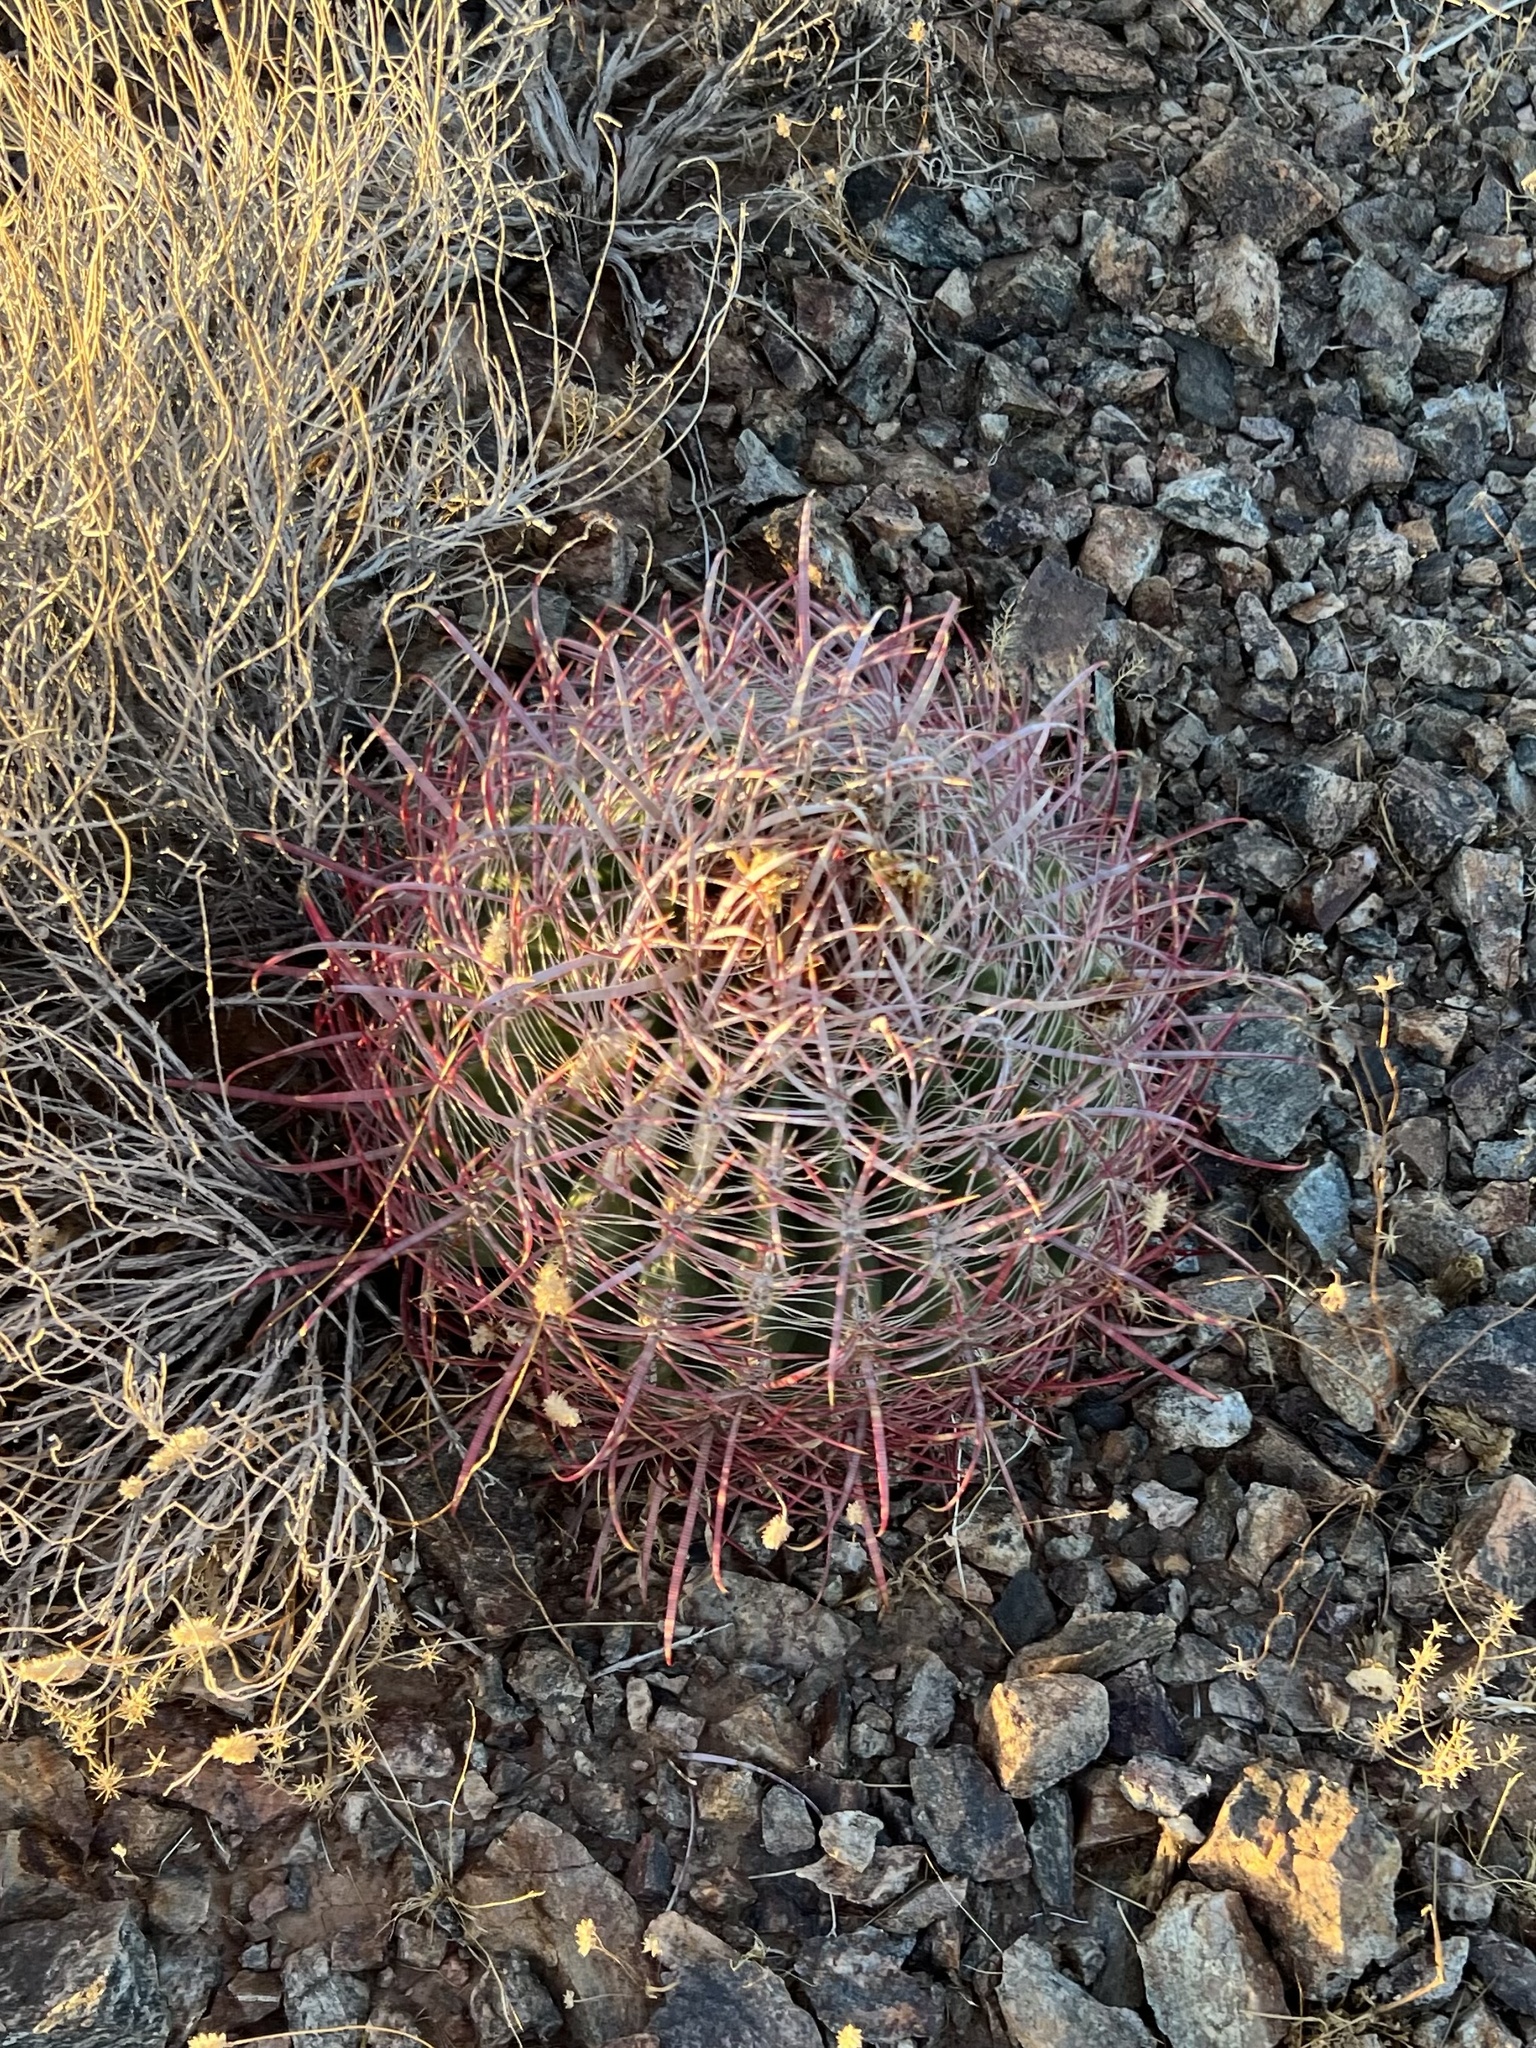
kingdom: Plantae
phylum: Tracheophyta
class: Magnoliopsida
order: Caryophyllales
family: Cactaceae
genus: Ferocactus
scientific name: Ferocactus cylindraceus
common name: California barrel cactus
